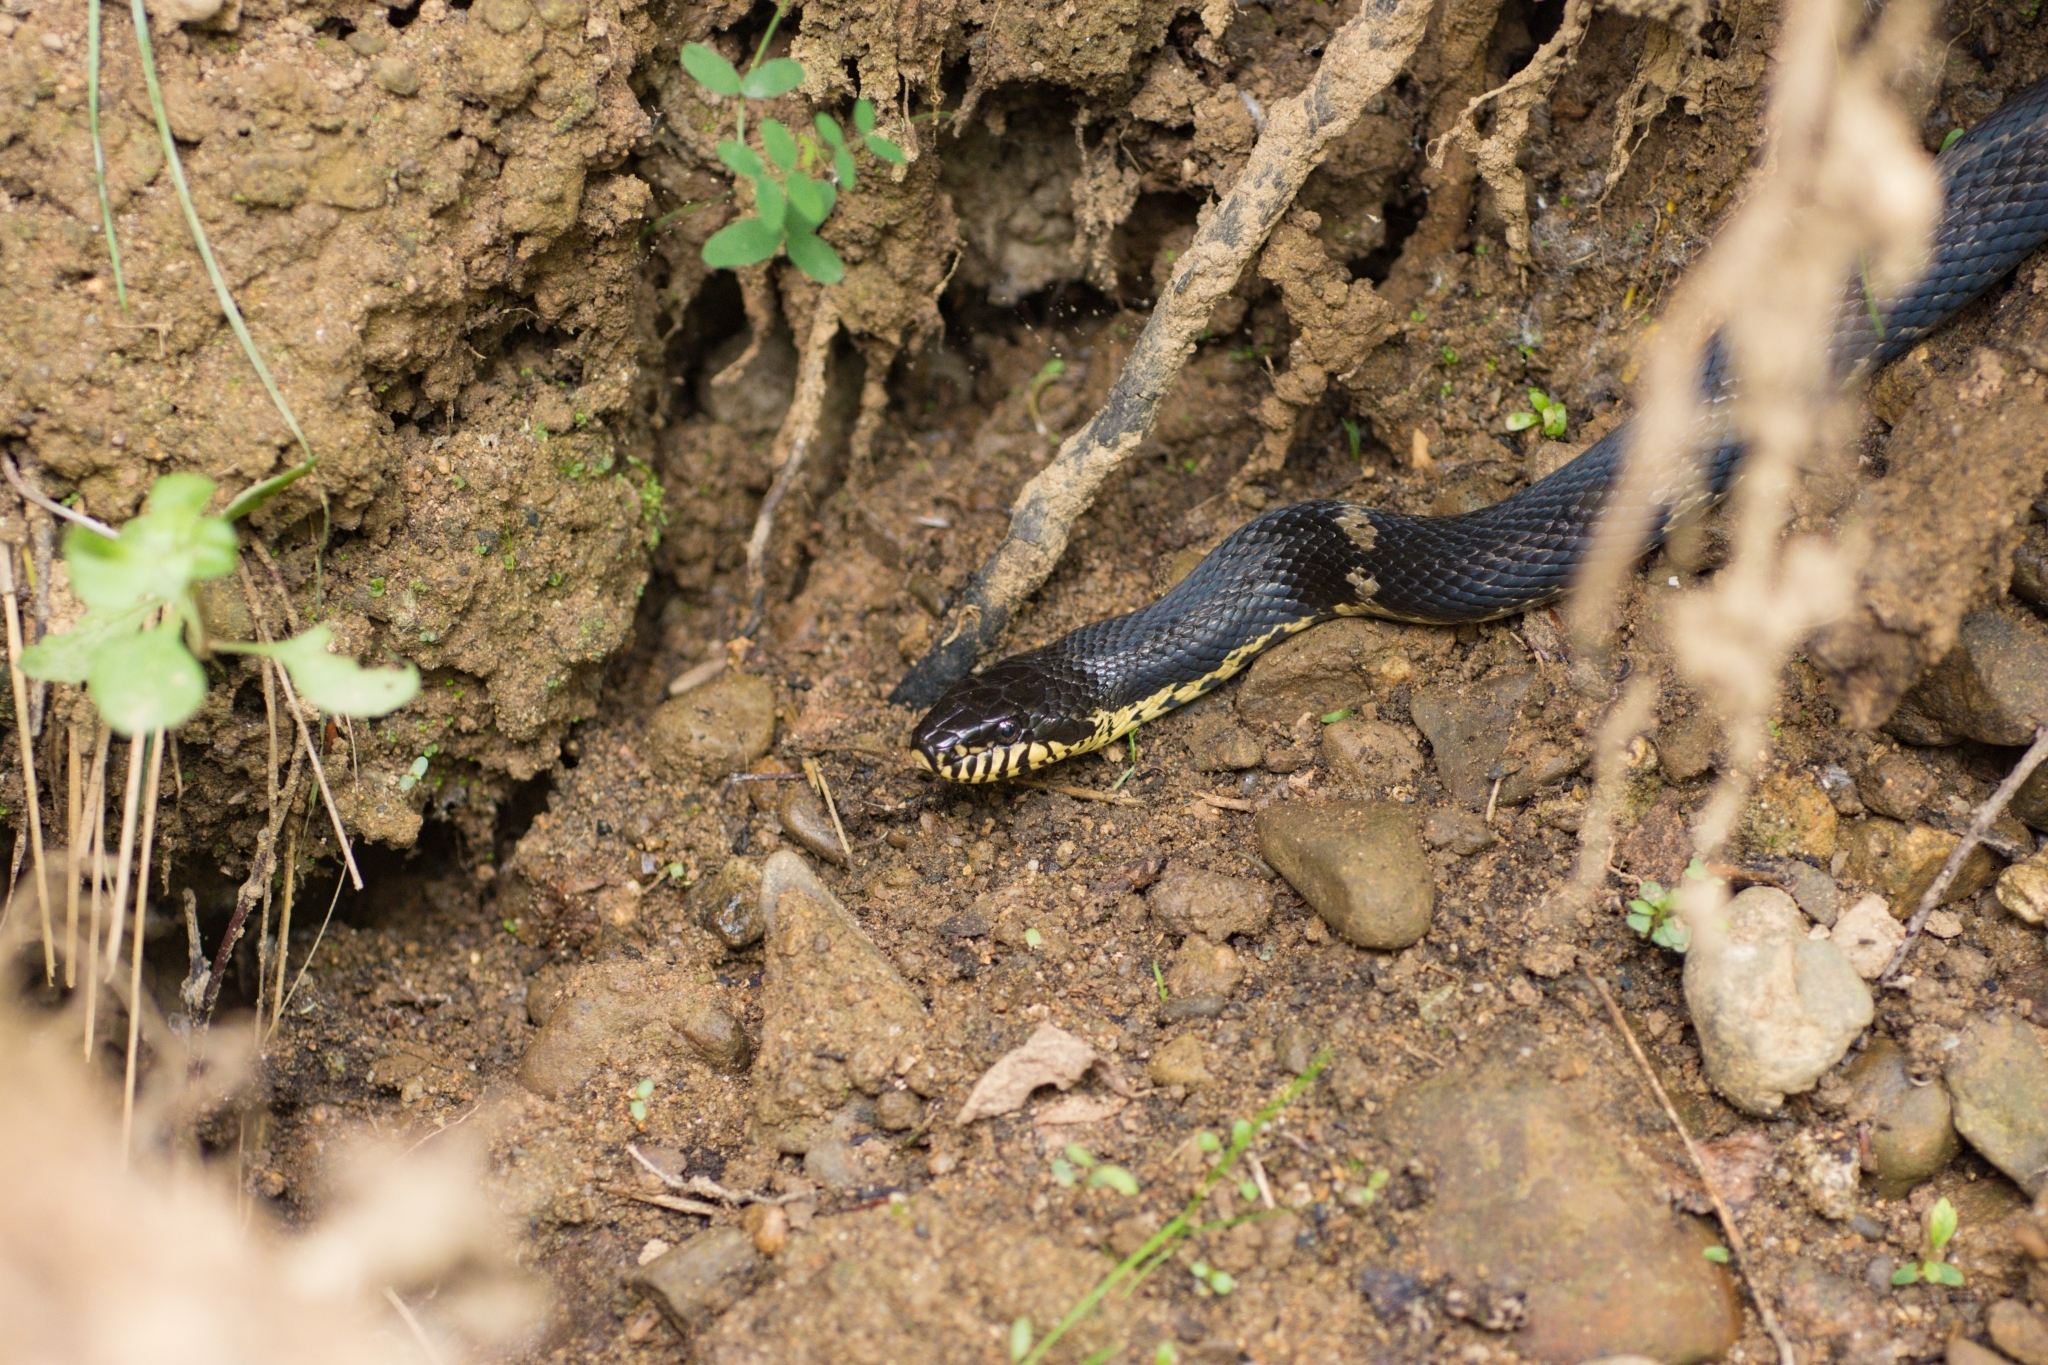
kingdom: Animalia
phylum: Chordata
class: Squamata
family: Colubridae
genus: Elaphe
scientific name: Elaphe schrenckii
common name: Amur rat snake
